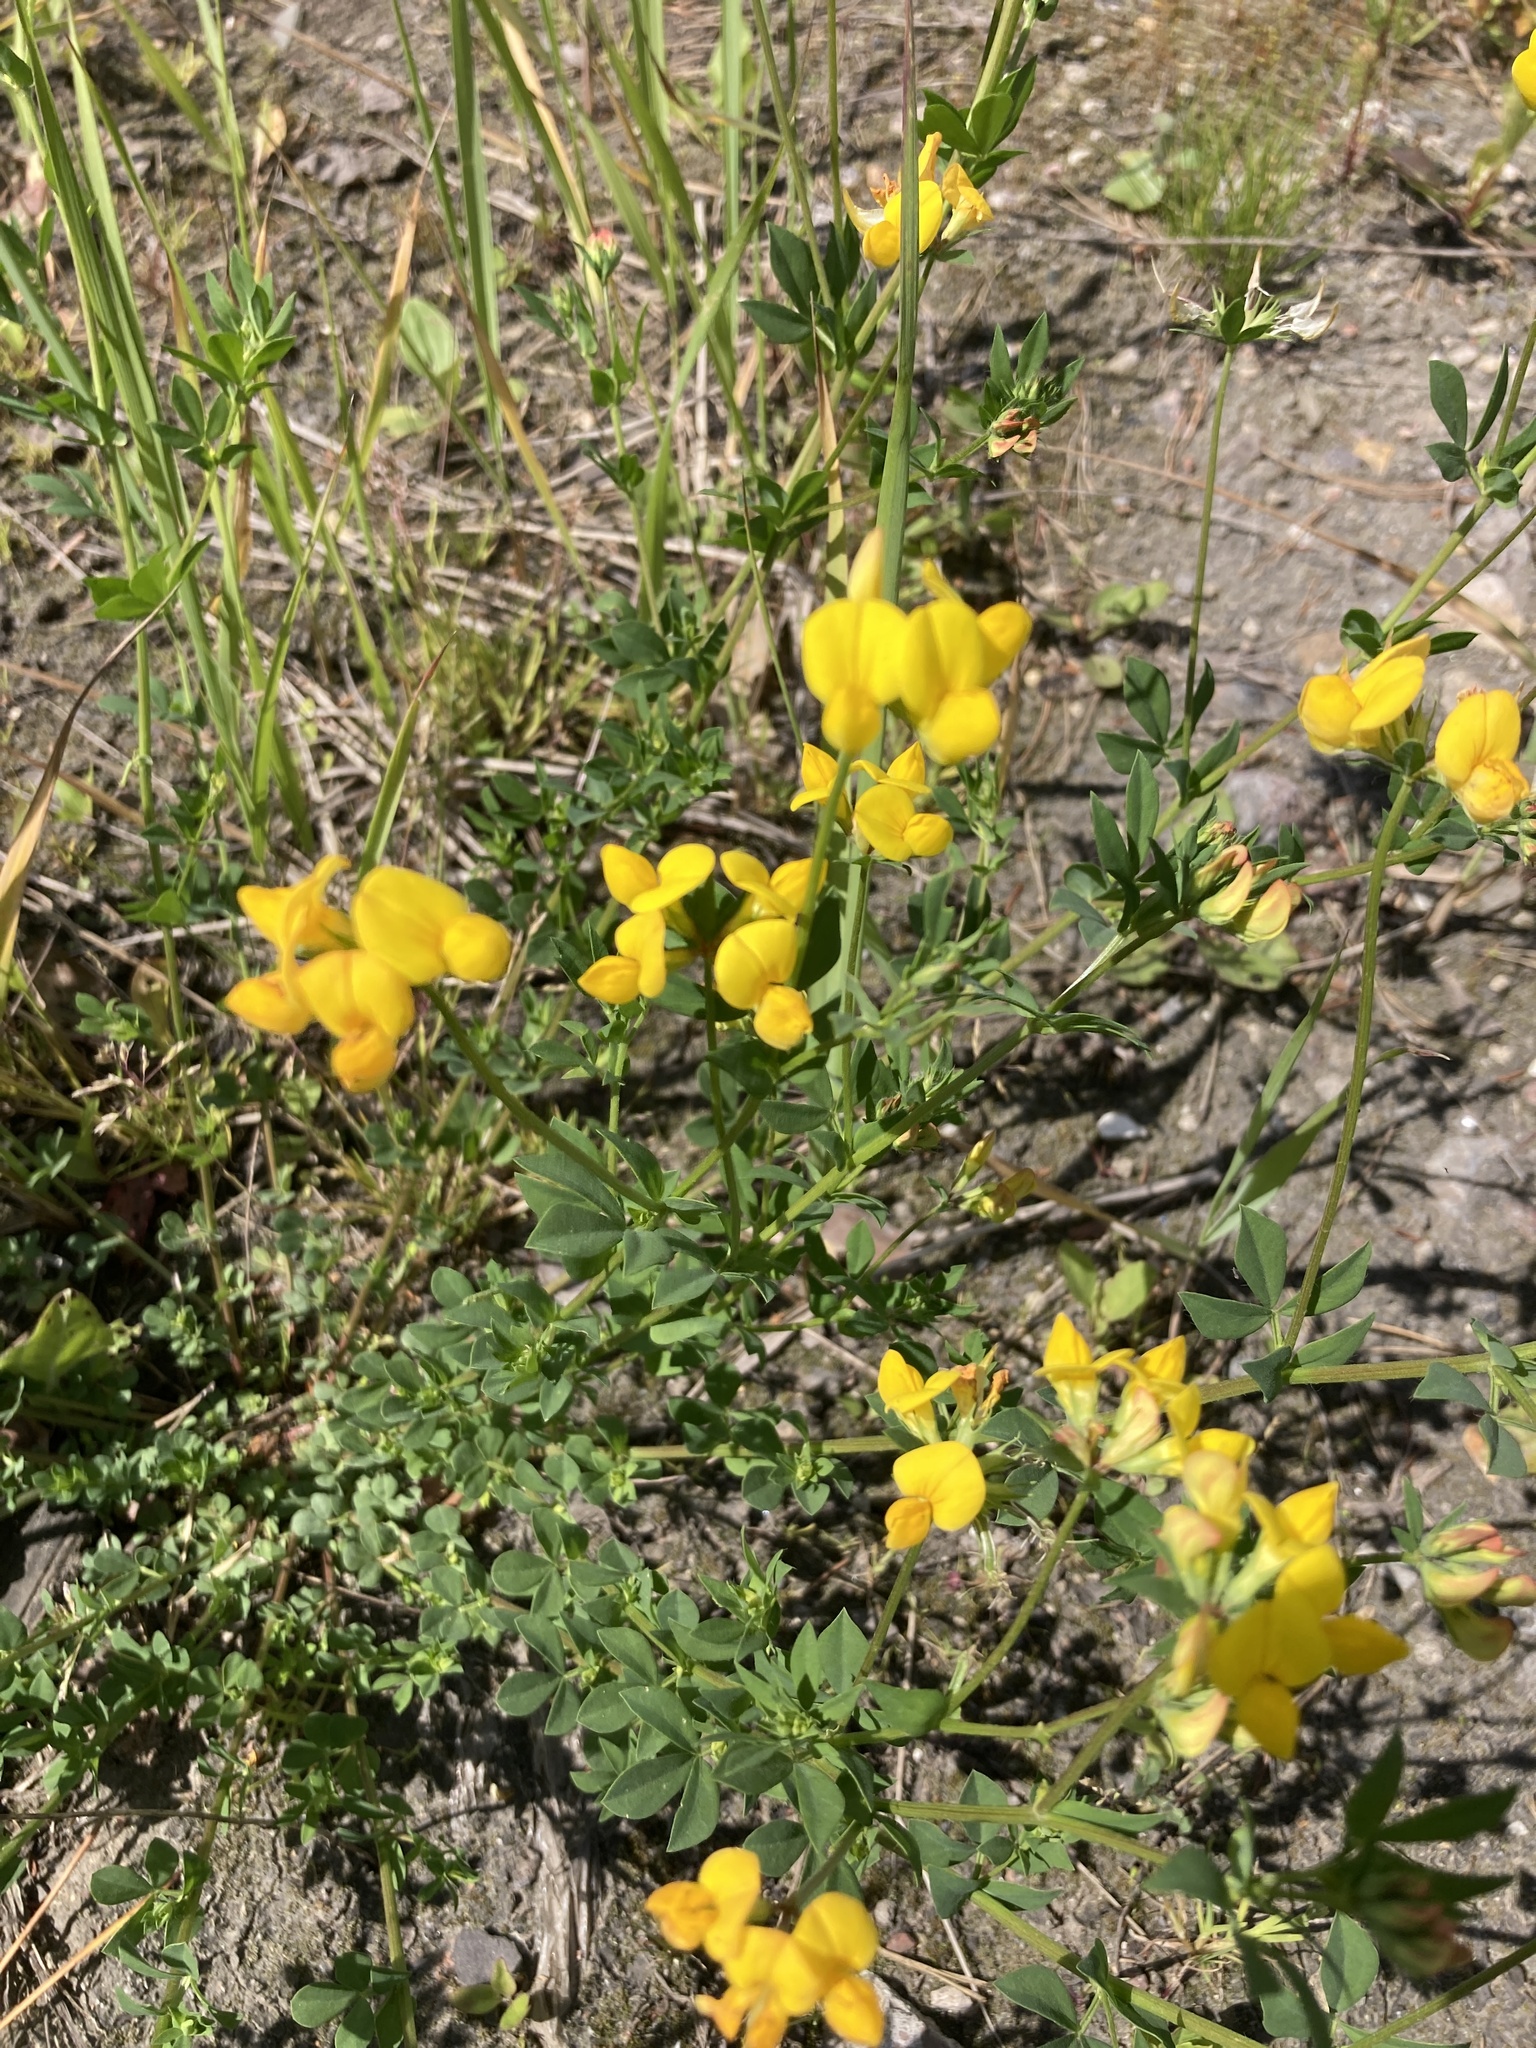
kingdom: Plantae
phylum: Tracheophyta
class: Magnoliopsida
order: Fabales
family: Fabaceae
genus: Lotus
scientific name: Lotus corniculatus
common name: Common bird's-foot-trefoil
